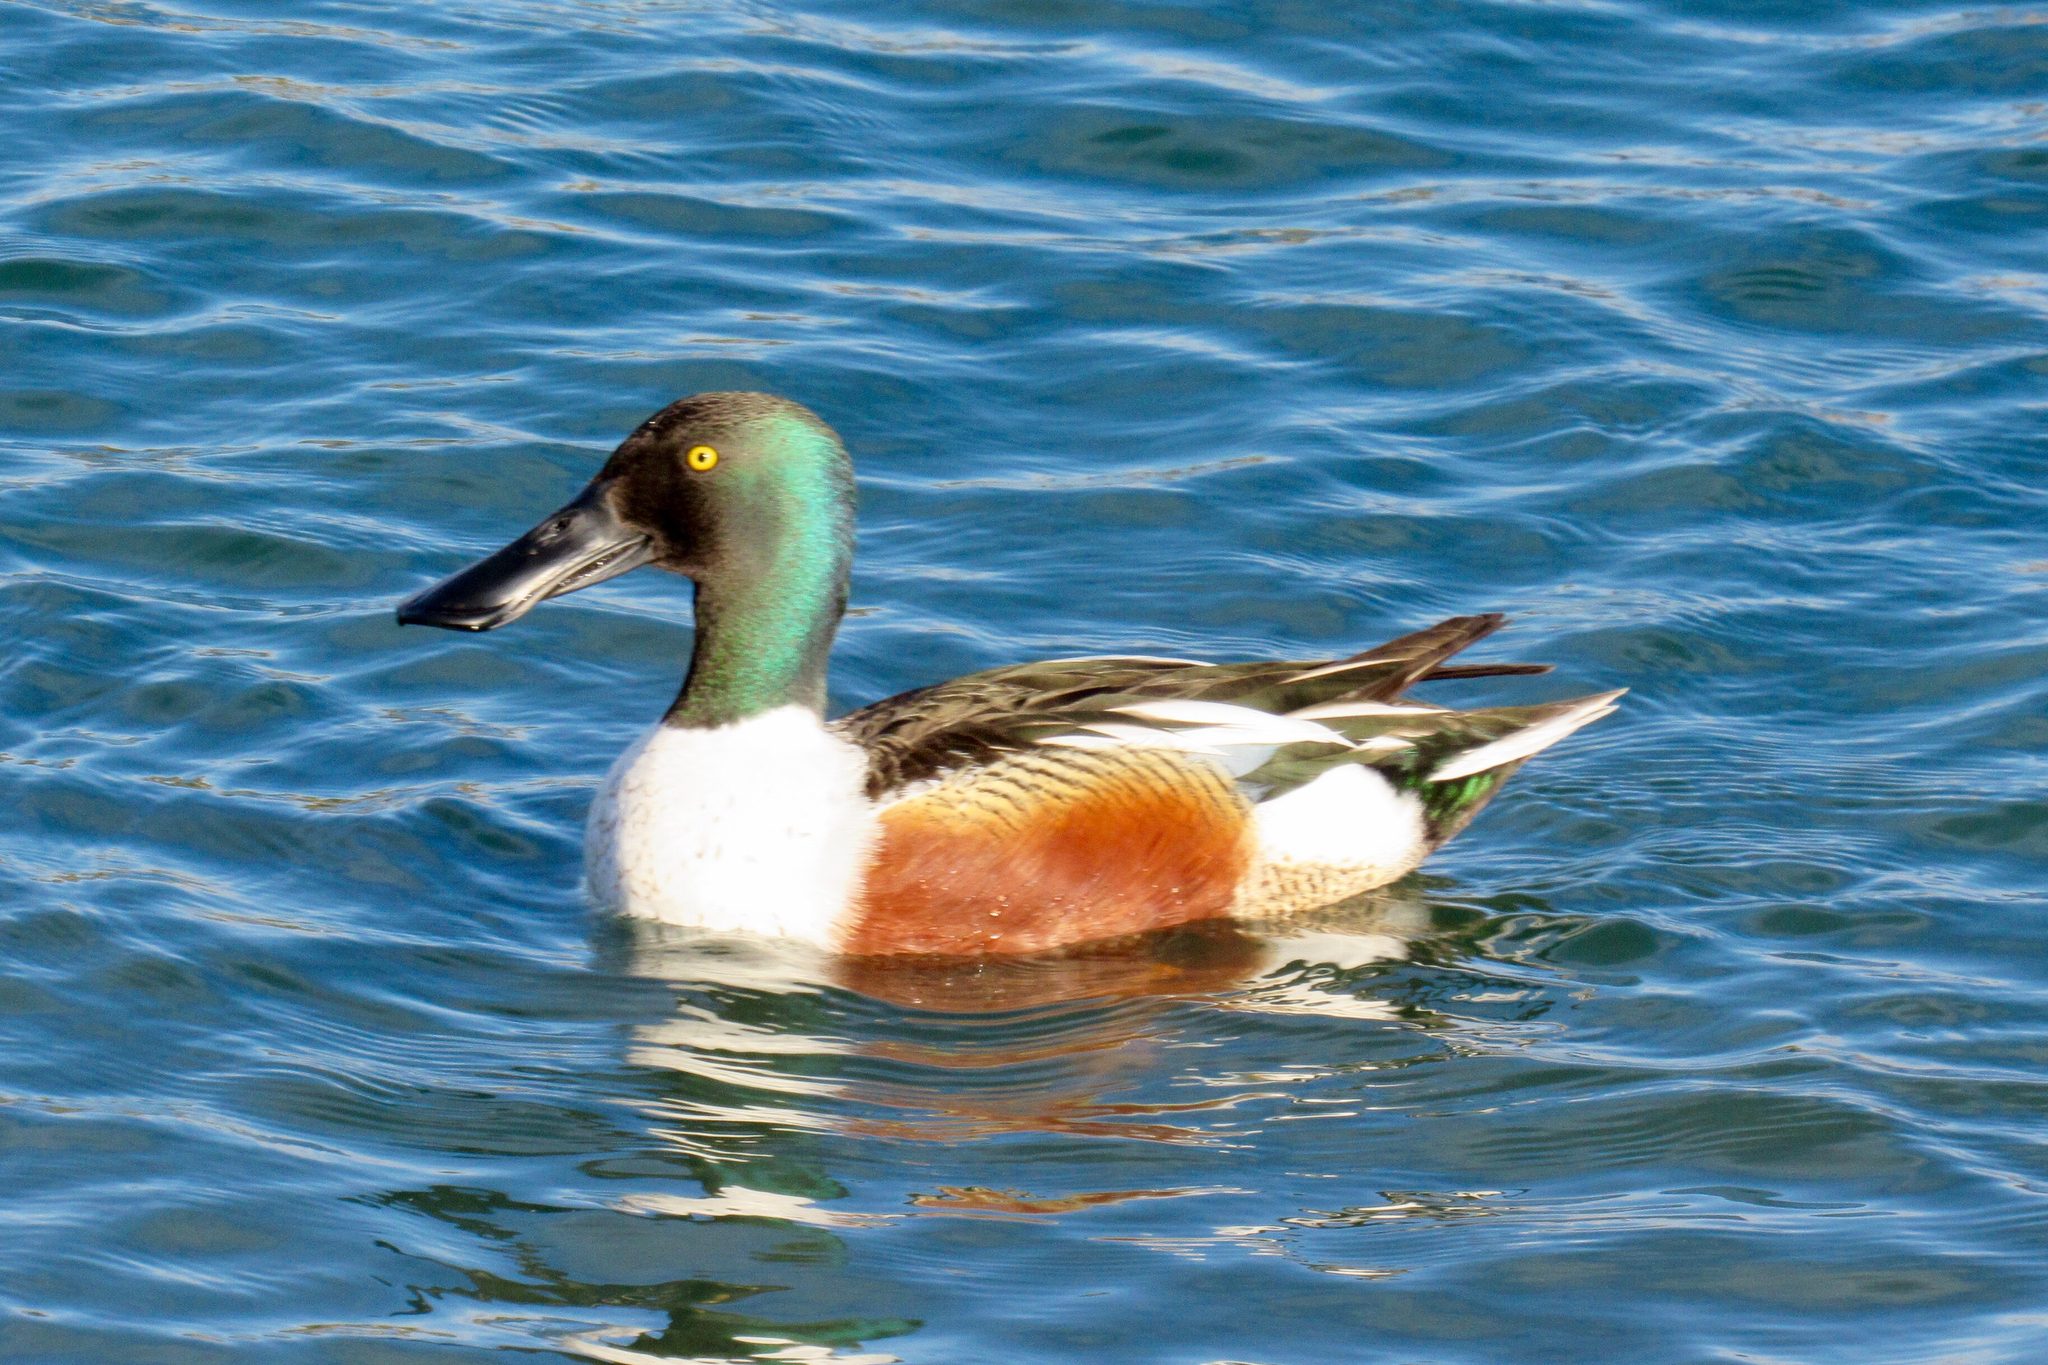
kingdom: Animalia
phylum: Chordata
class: Aves
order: Anseriformes
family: Anatidae
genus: Spatula
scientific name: Spatula clypeata
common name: Northern shoveler
